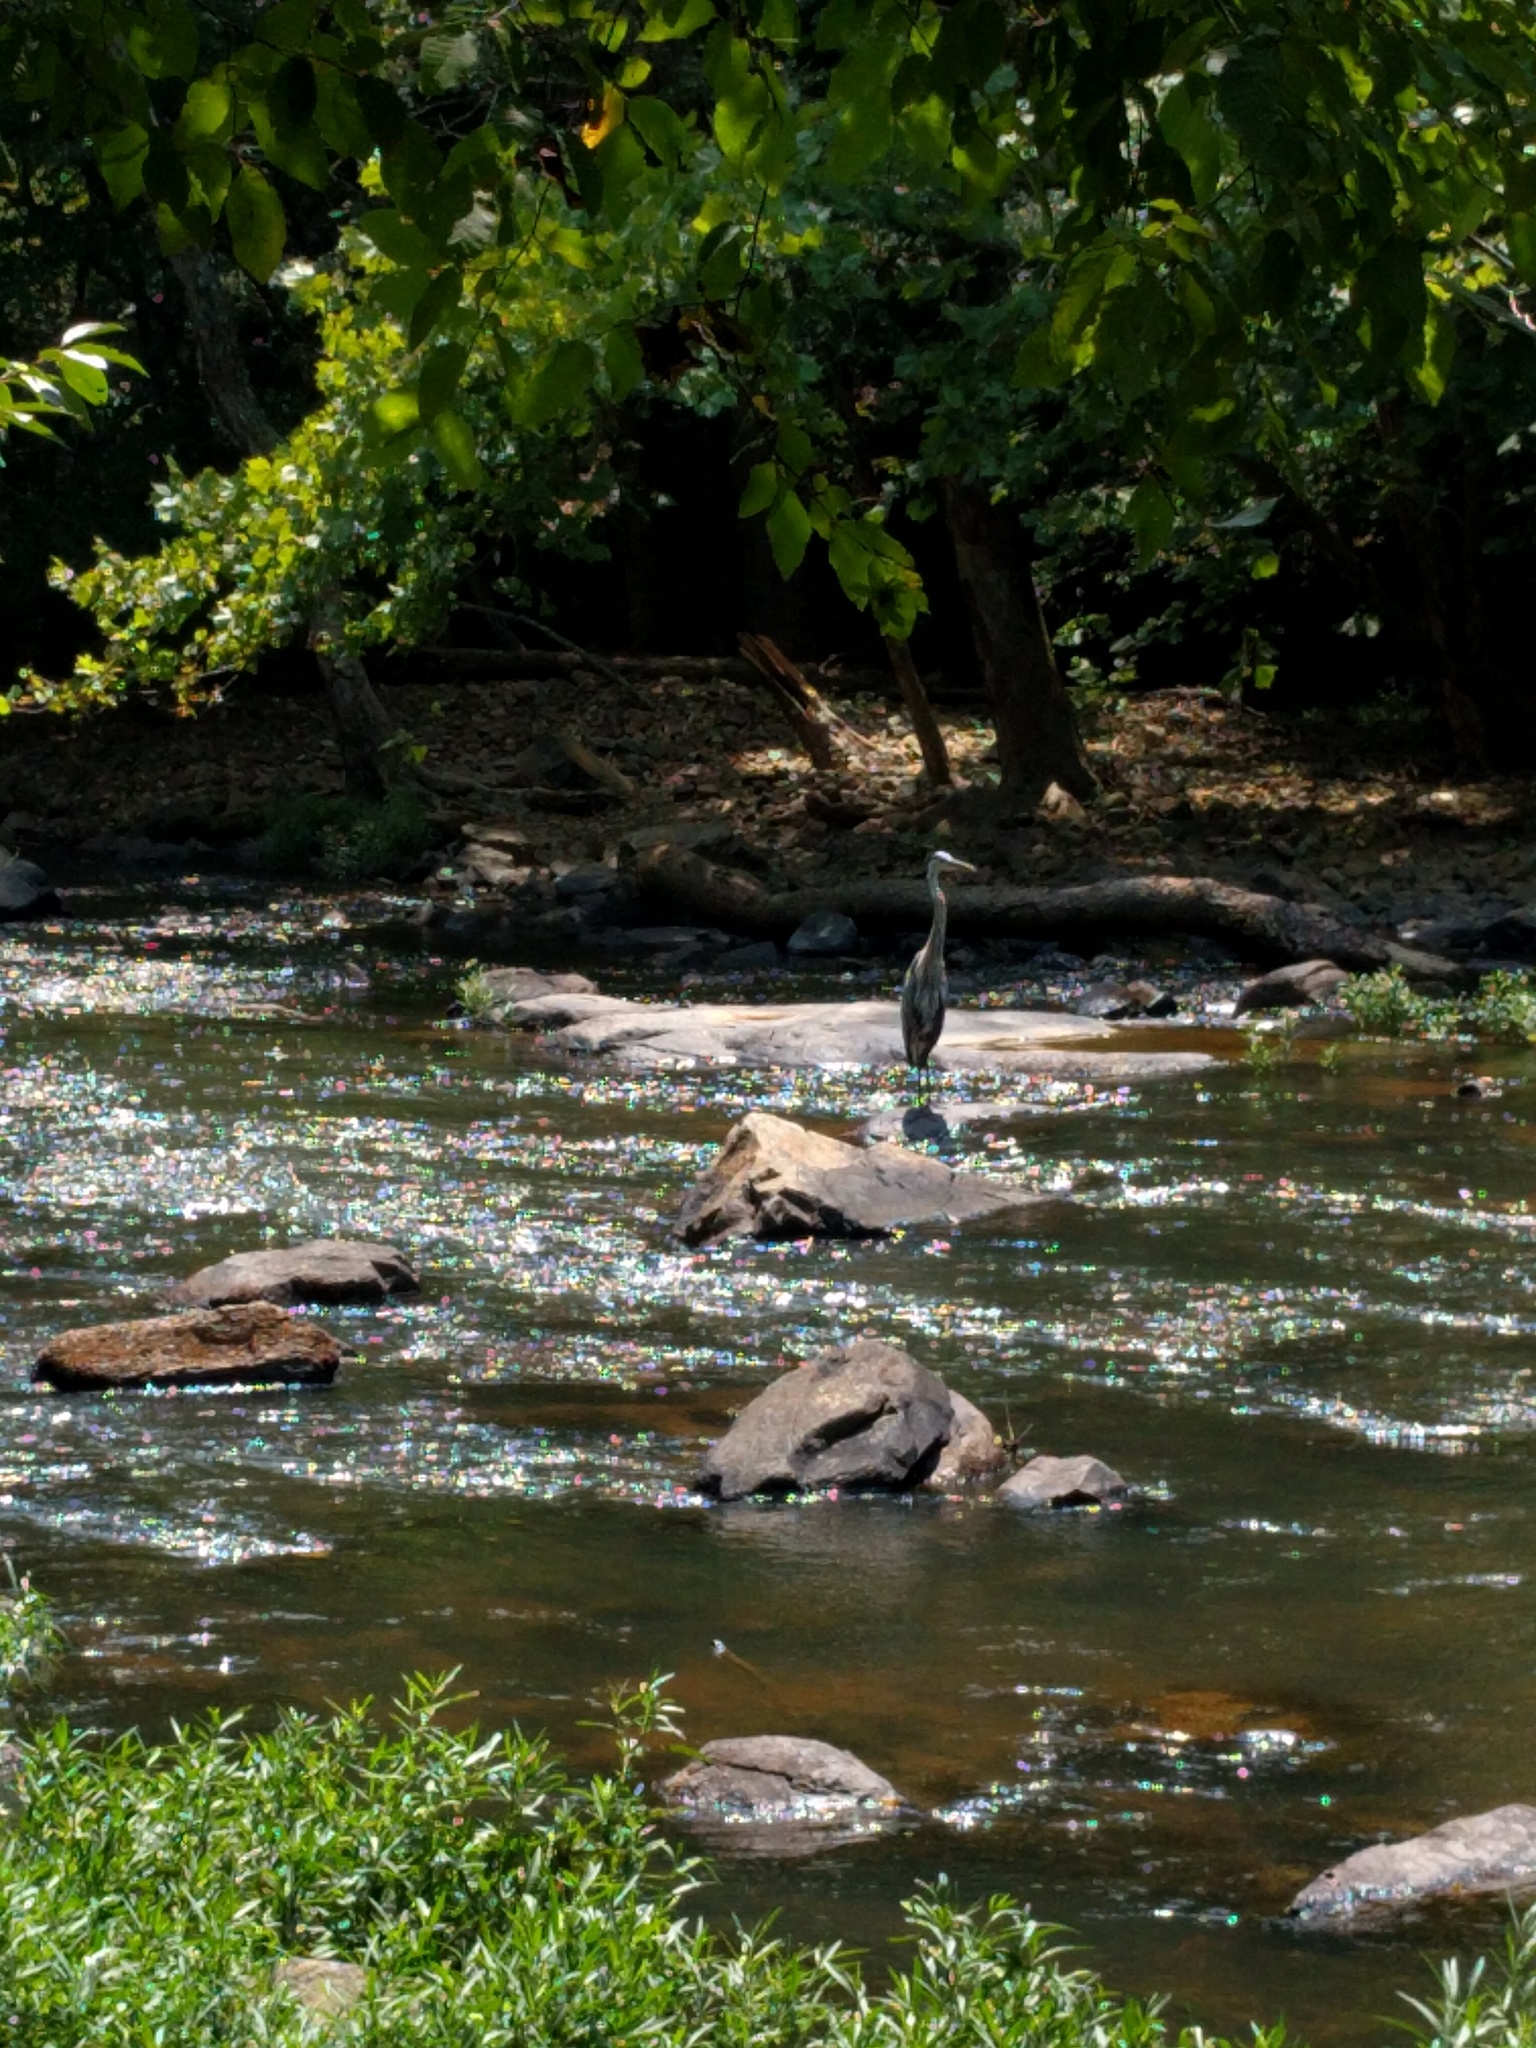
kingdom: Animalia
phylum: Chordata
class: Aves
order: Pelecaniformes
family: Ardeidae
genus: Ardea
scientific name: Ardea herodias
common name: Great blue heron
